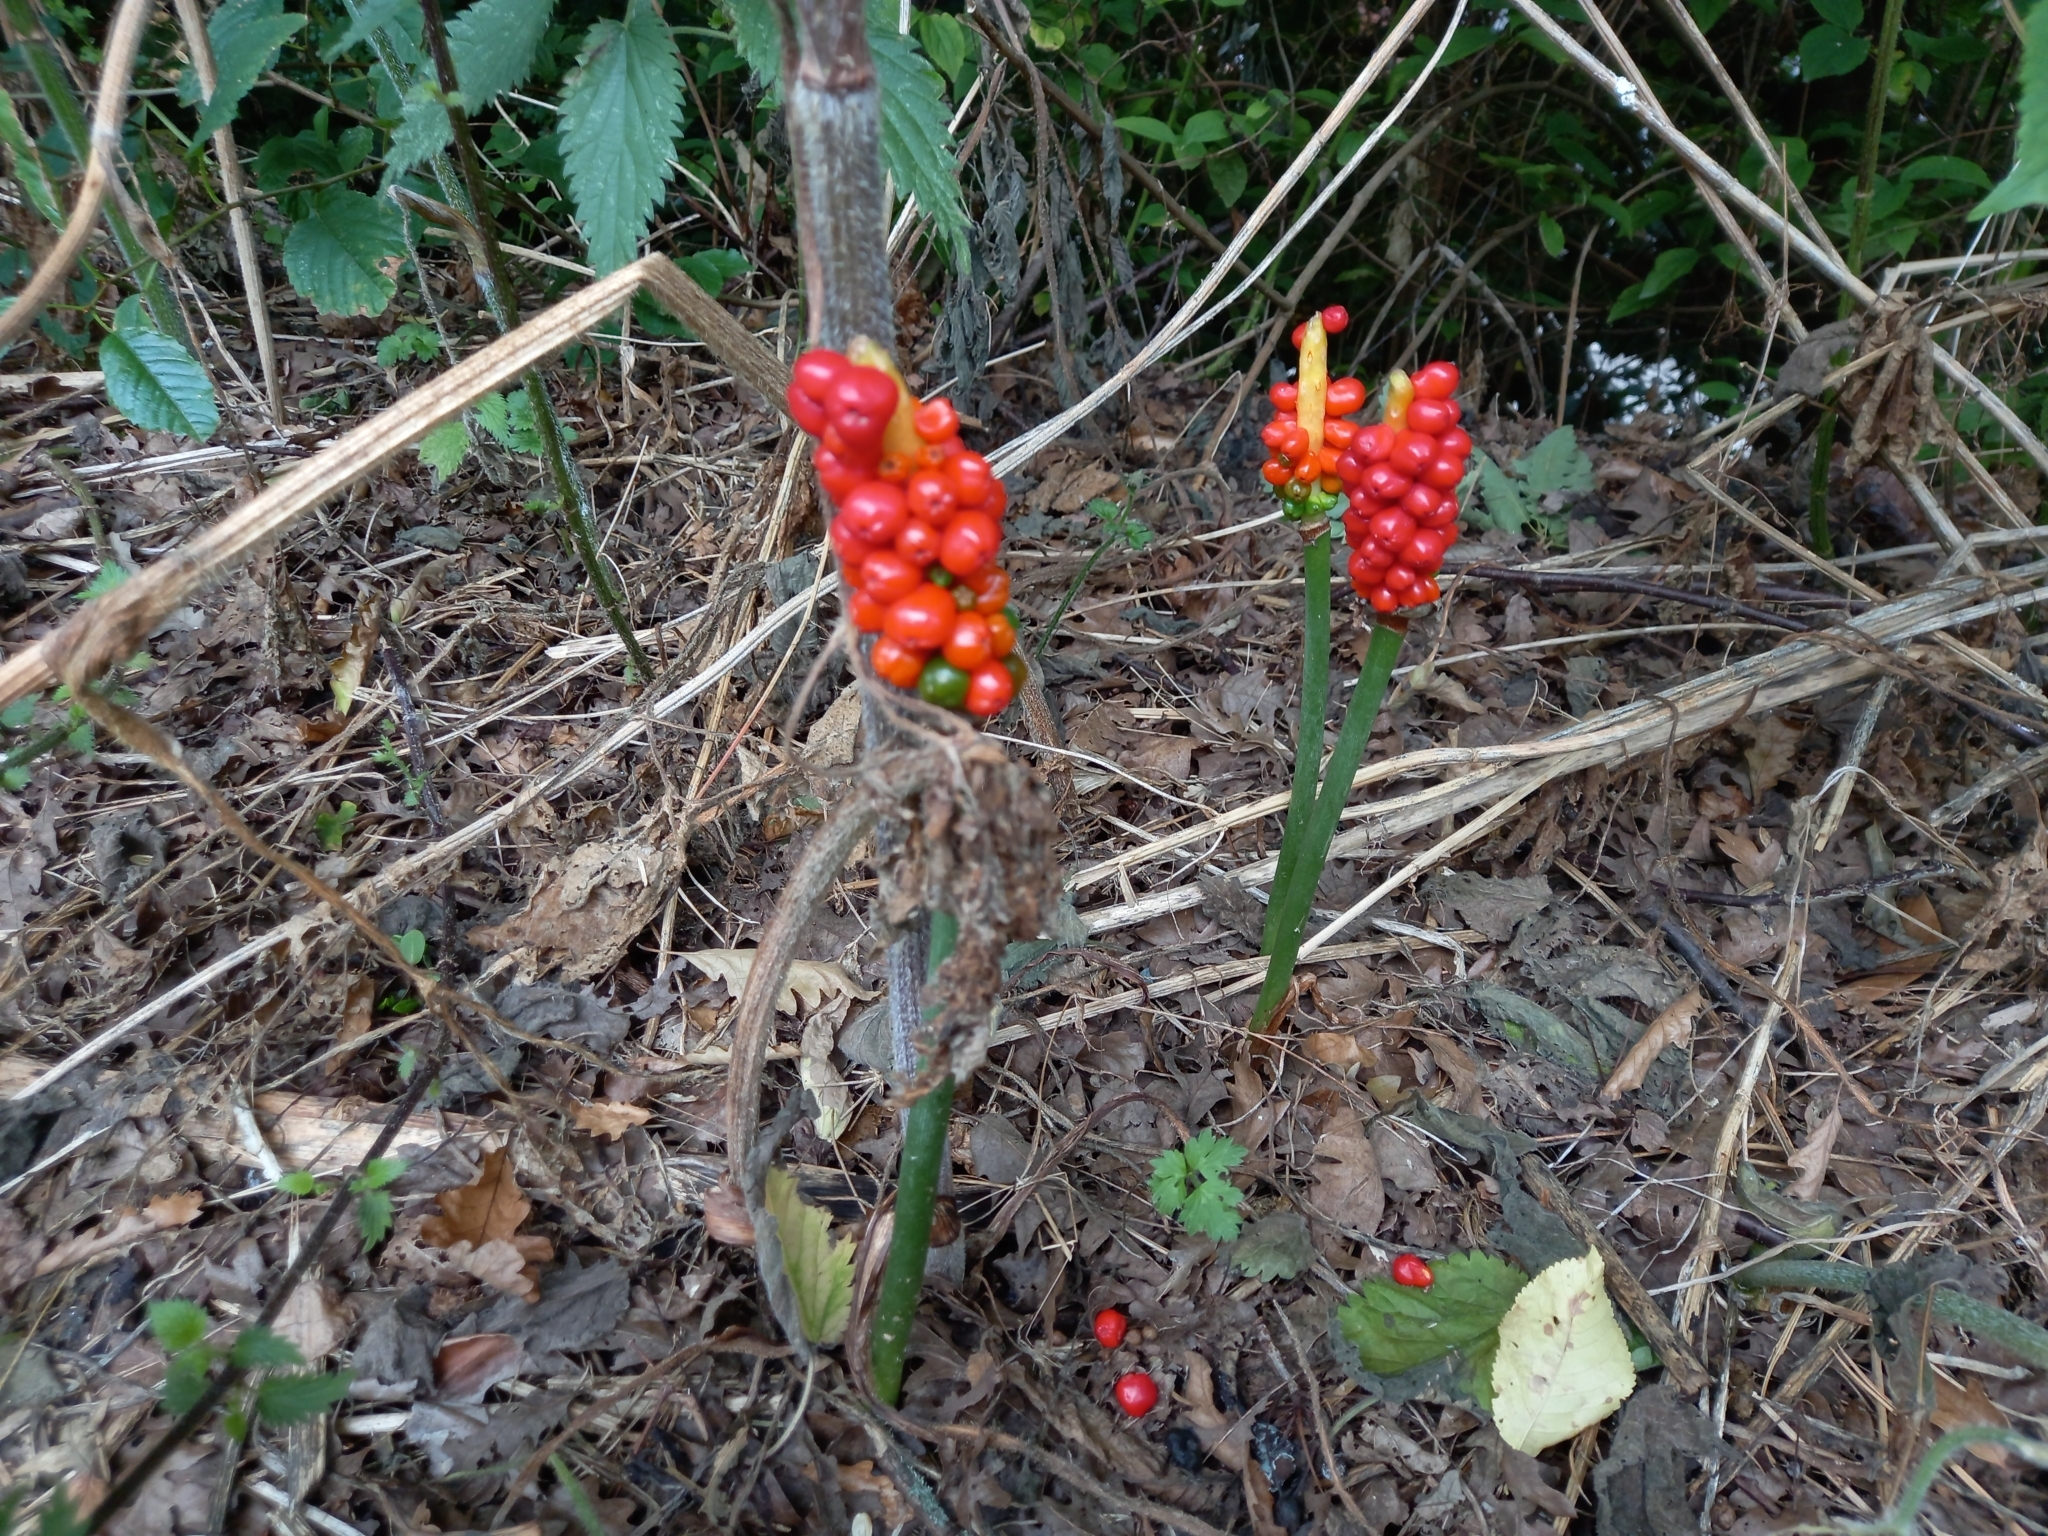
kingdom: Plantae
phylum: Tracheophyta
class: Liliopsida
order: Alismatales
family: Araceae
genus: Arum
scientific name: Arum maculatum
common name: Lords-and-ladies
